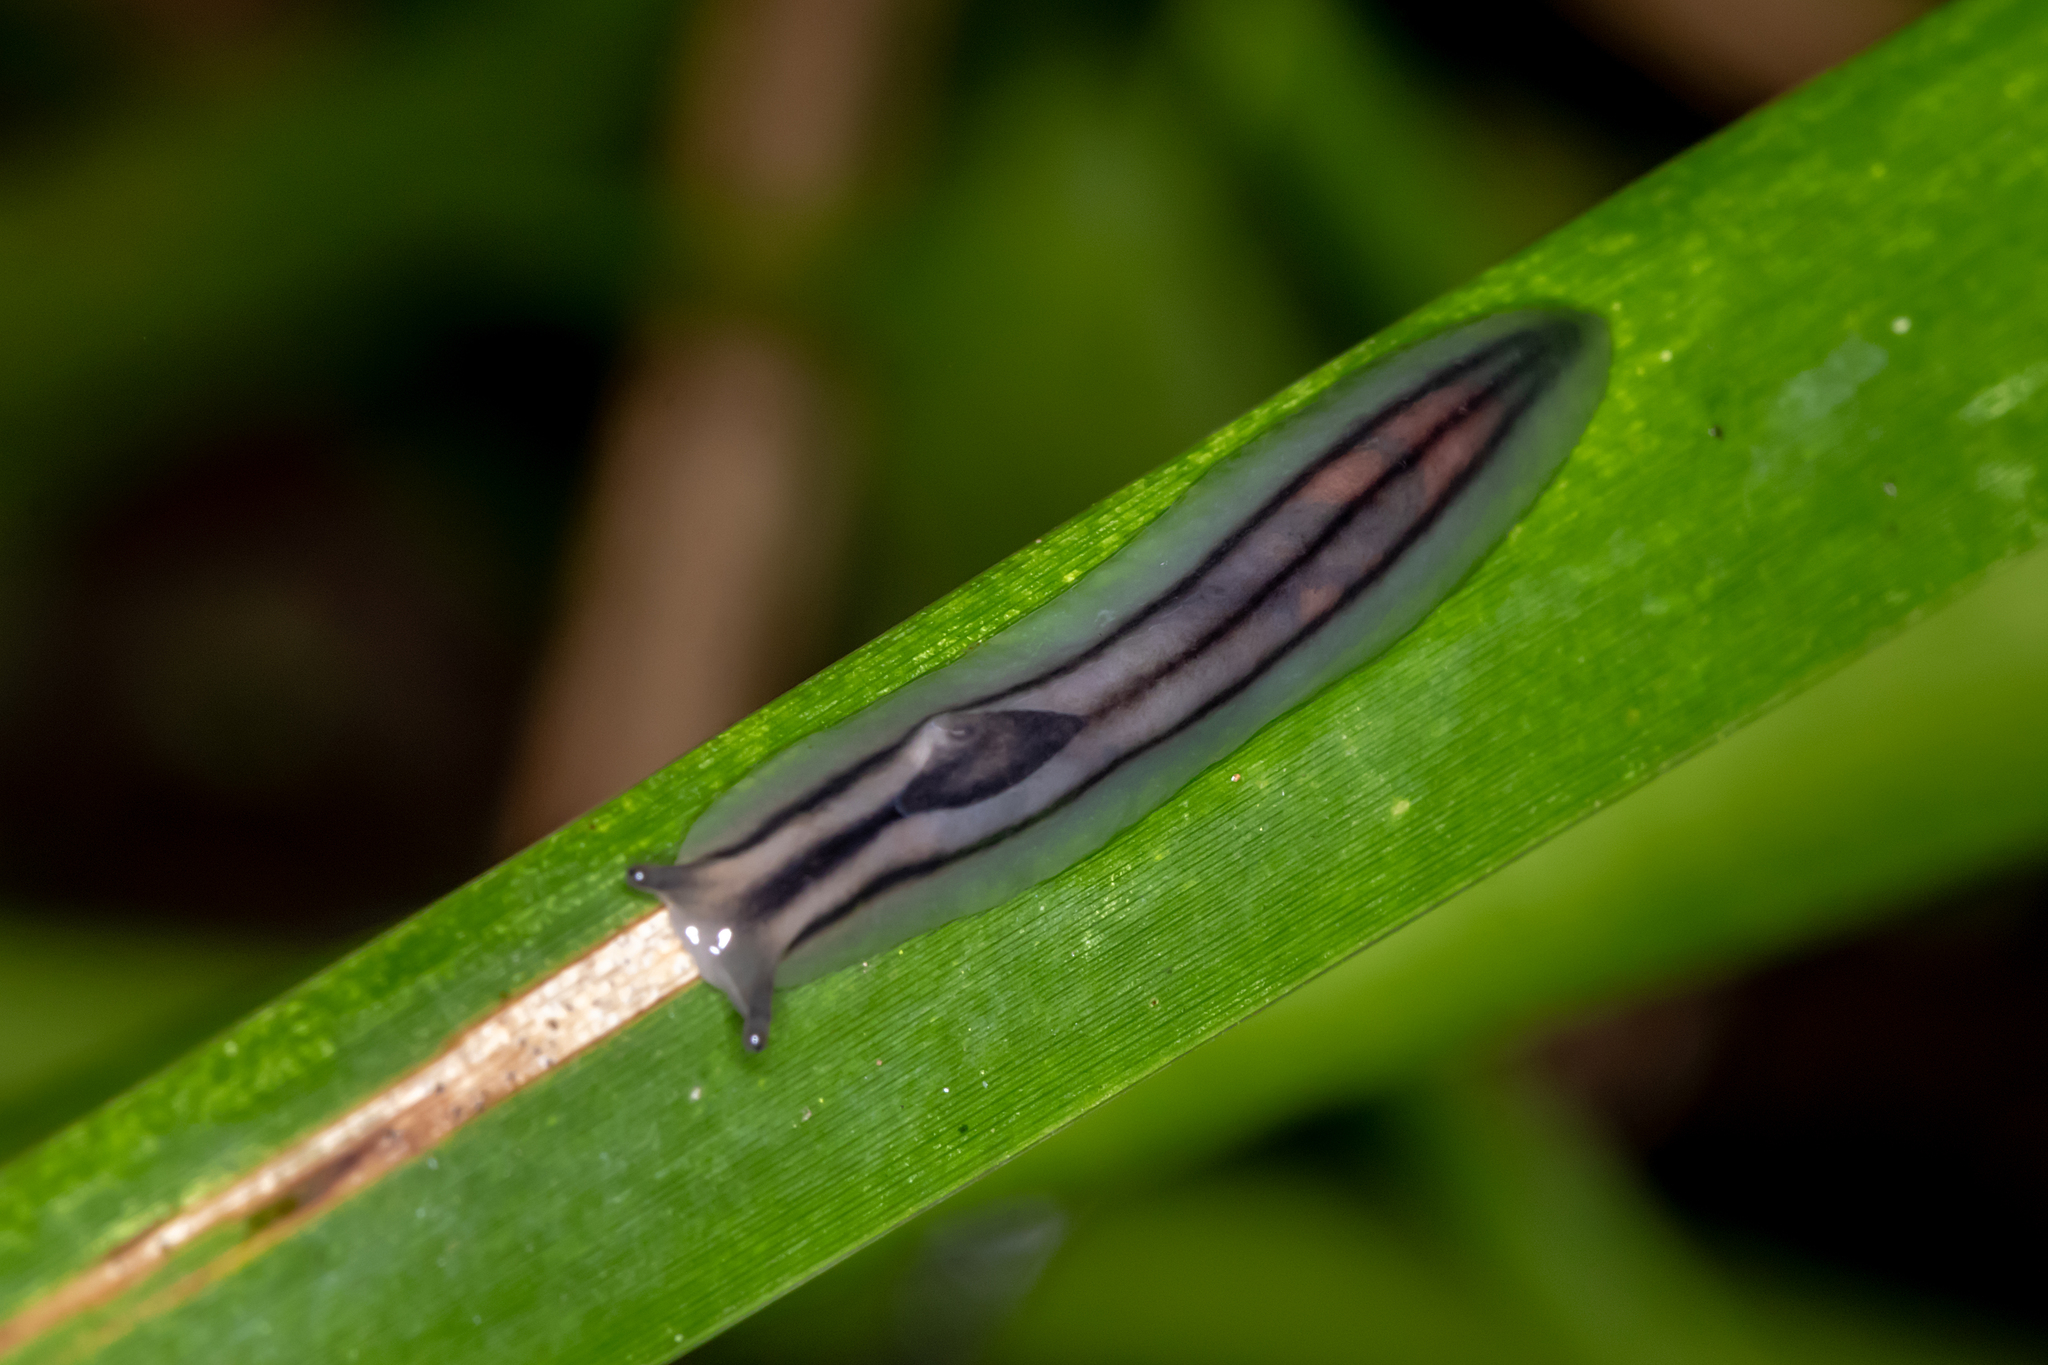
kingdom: Animalia
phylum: Mollusca
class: Gastropoda
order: Stylommatophora
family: Athoracophoridae
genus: Triboniophorus
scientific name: Triboniophorus graeffei
